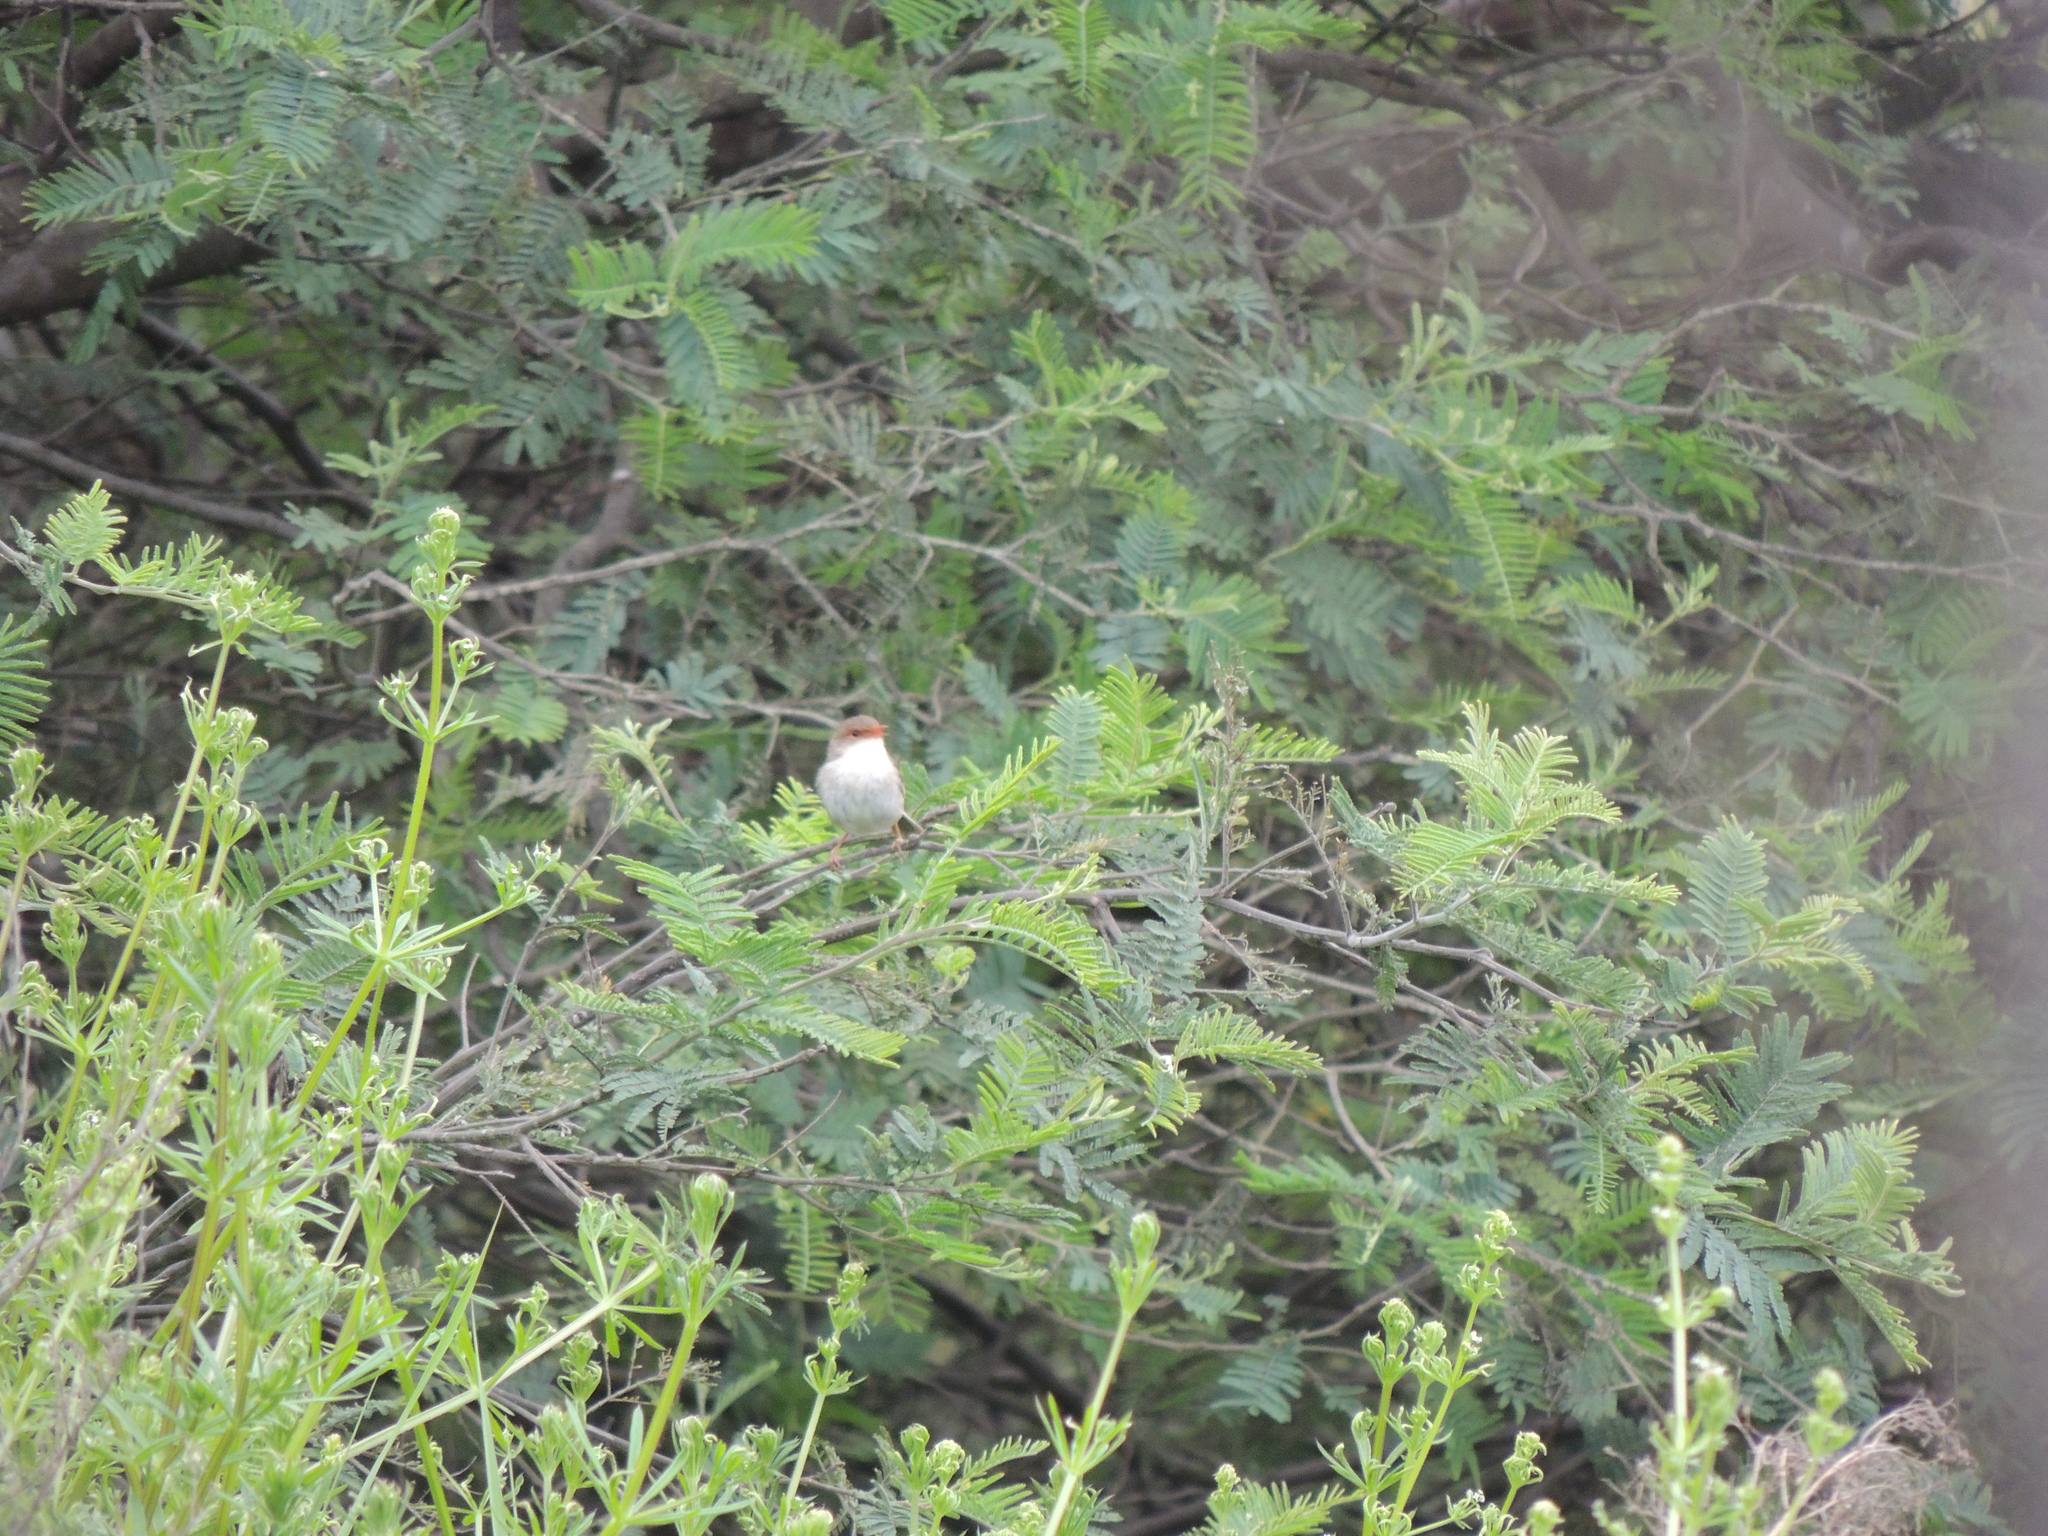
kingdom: Animalia
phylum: Chordata
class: Aves
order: Passeriformes
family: Maluridae
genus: Malurus
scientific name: Malurus cyaneus
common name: Superb fairywren
